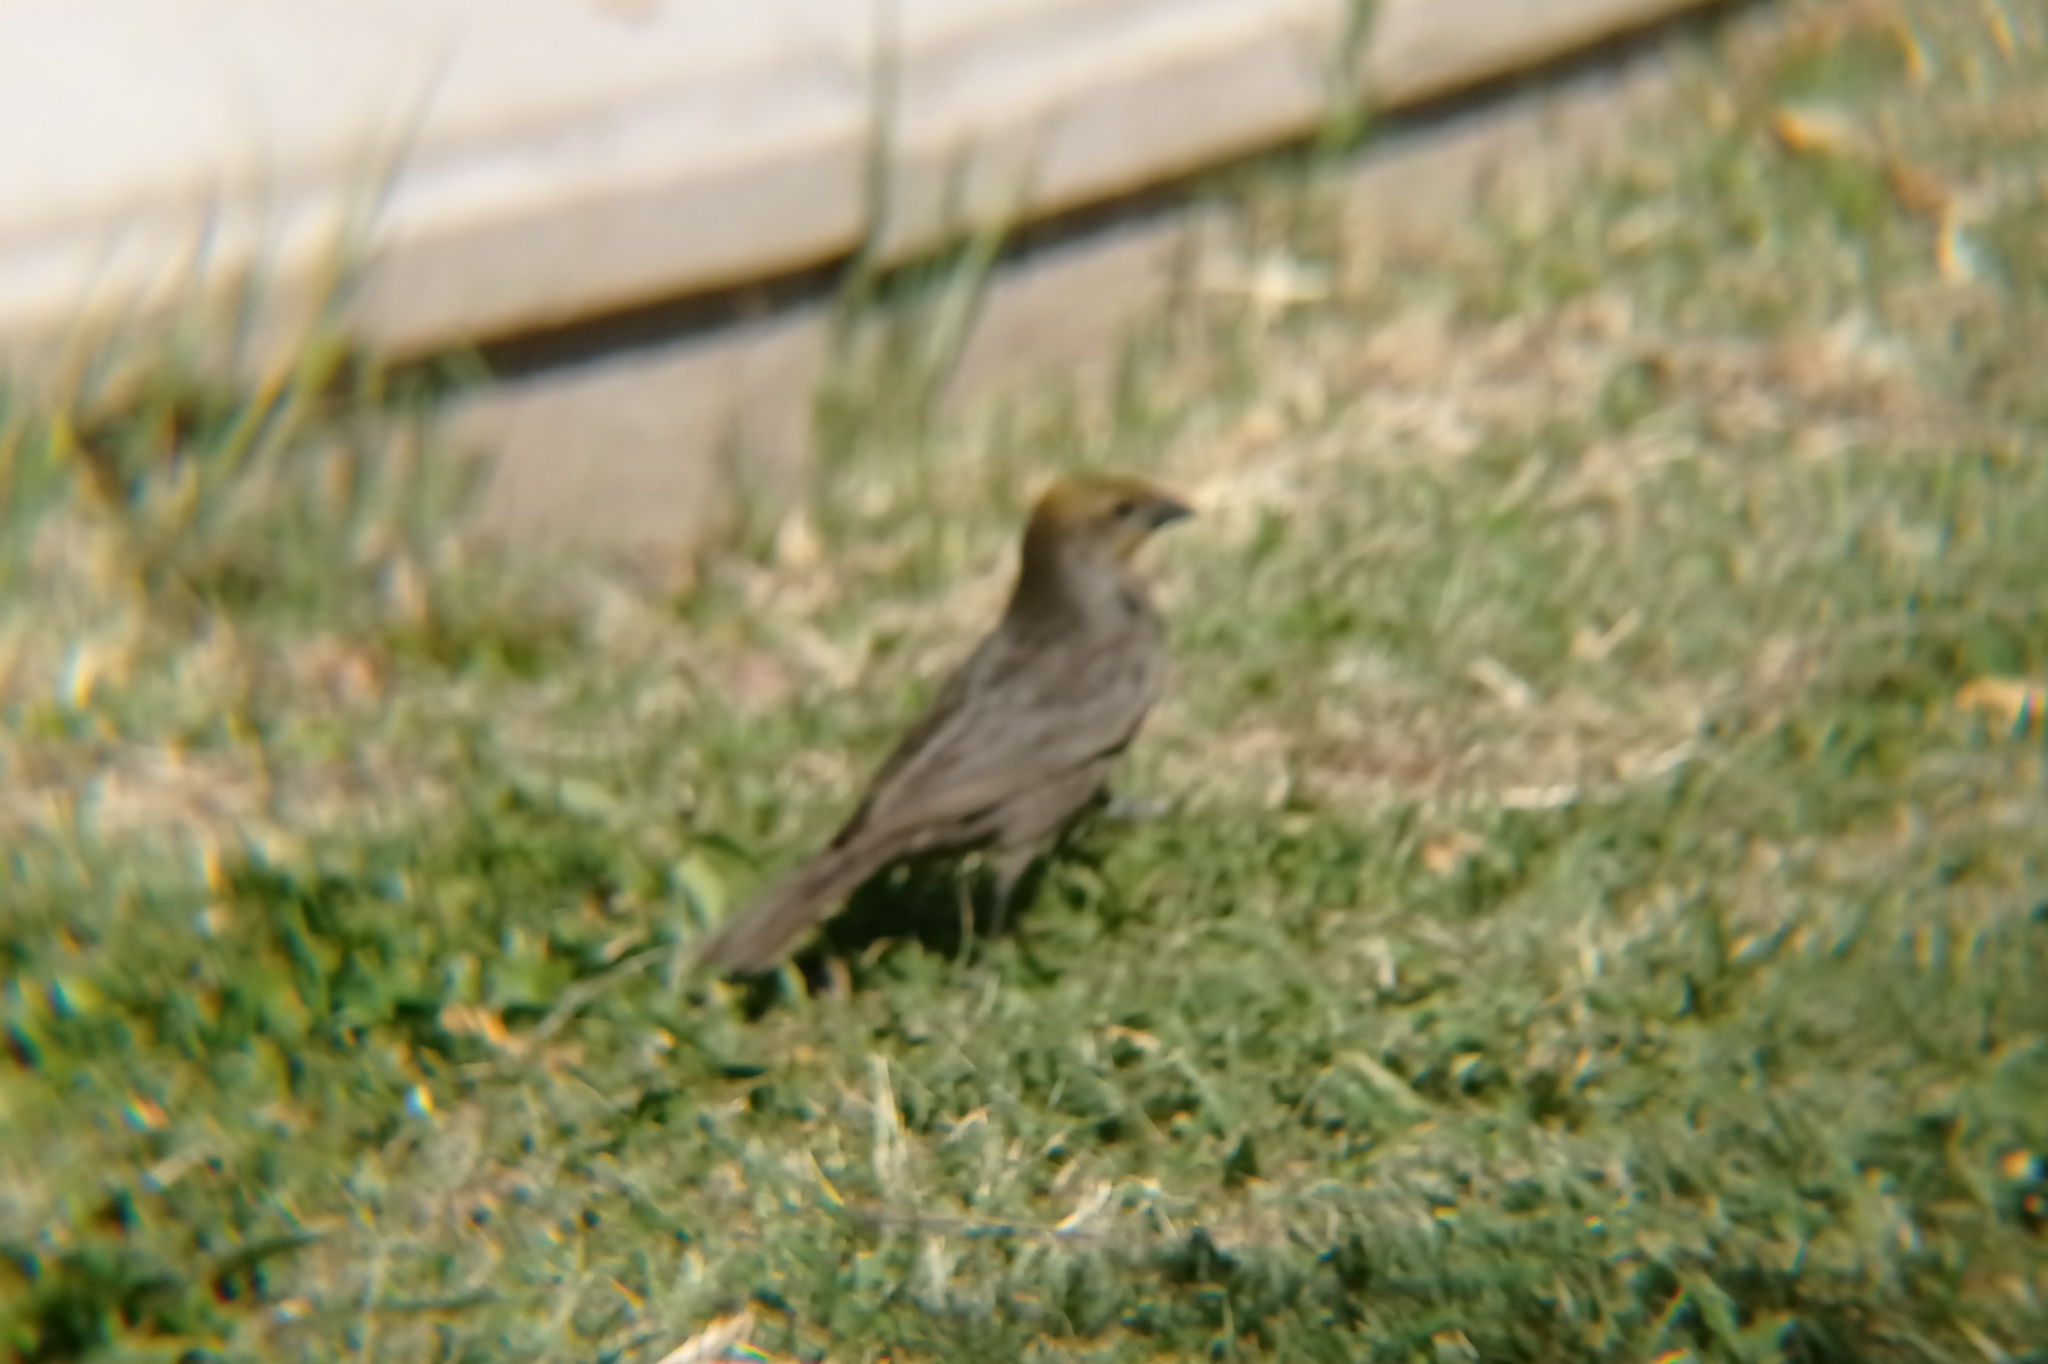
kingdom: Animalia
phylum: Chordata
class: Aves
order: Passeriformes
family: Icteridae
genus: Molothrus
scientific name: Molothrus bonariensis
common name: Shiny cowbird
